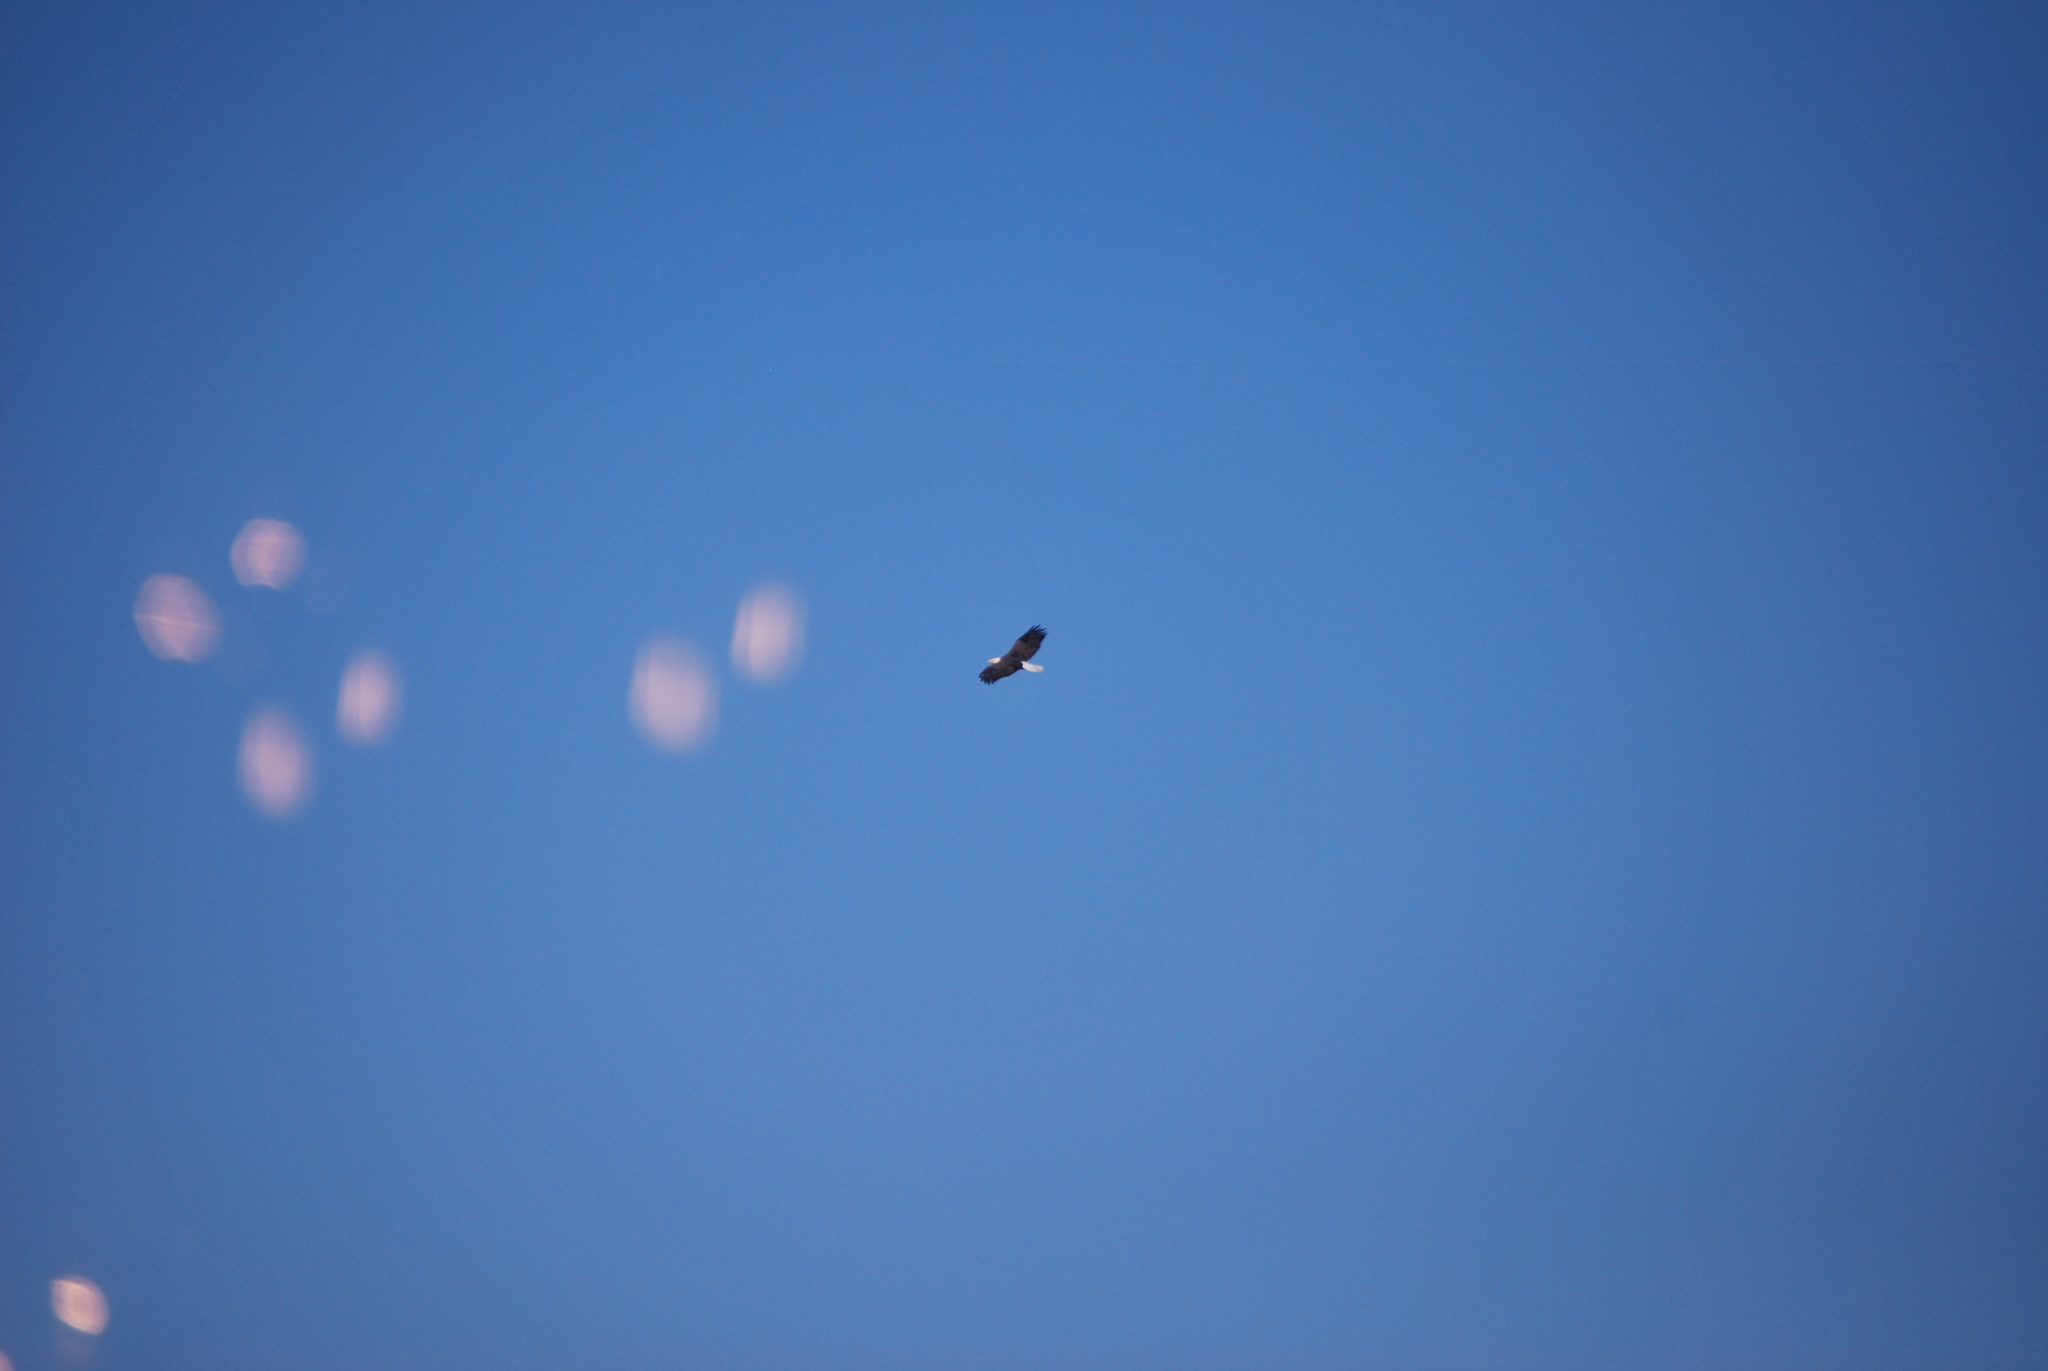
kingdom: Animalia
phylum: Chordata
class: Aves
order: Accipitriformes
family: Accipitridae
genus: Haliaeetus
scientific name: Haliaeetus leucocephalus
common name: Bald eagle
